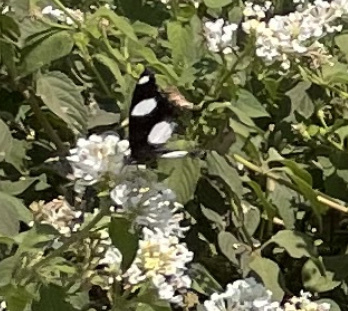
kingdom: Animalia
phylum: Arthropoda
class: Insecta
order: Lepidoptera
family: Nymphalidae
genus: Hypolimnas
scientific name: Hypolimnas misippus
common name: False plain tiger
